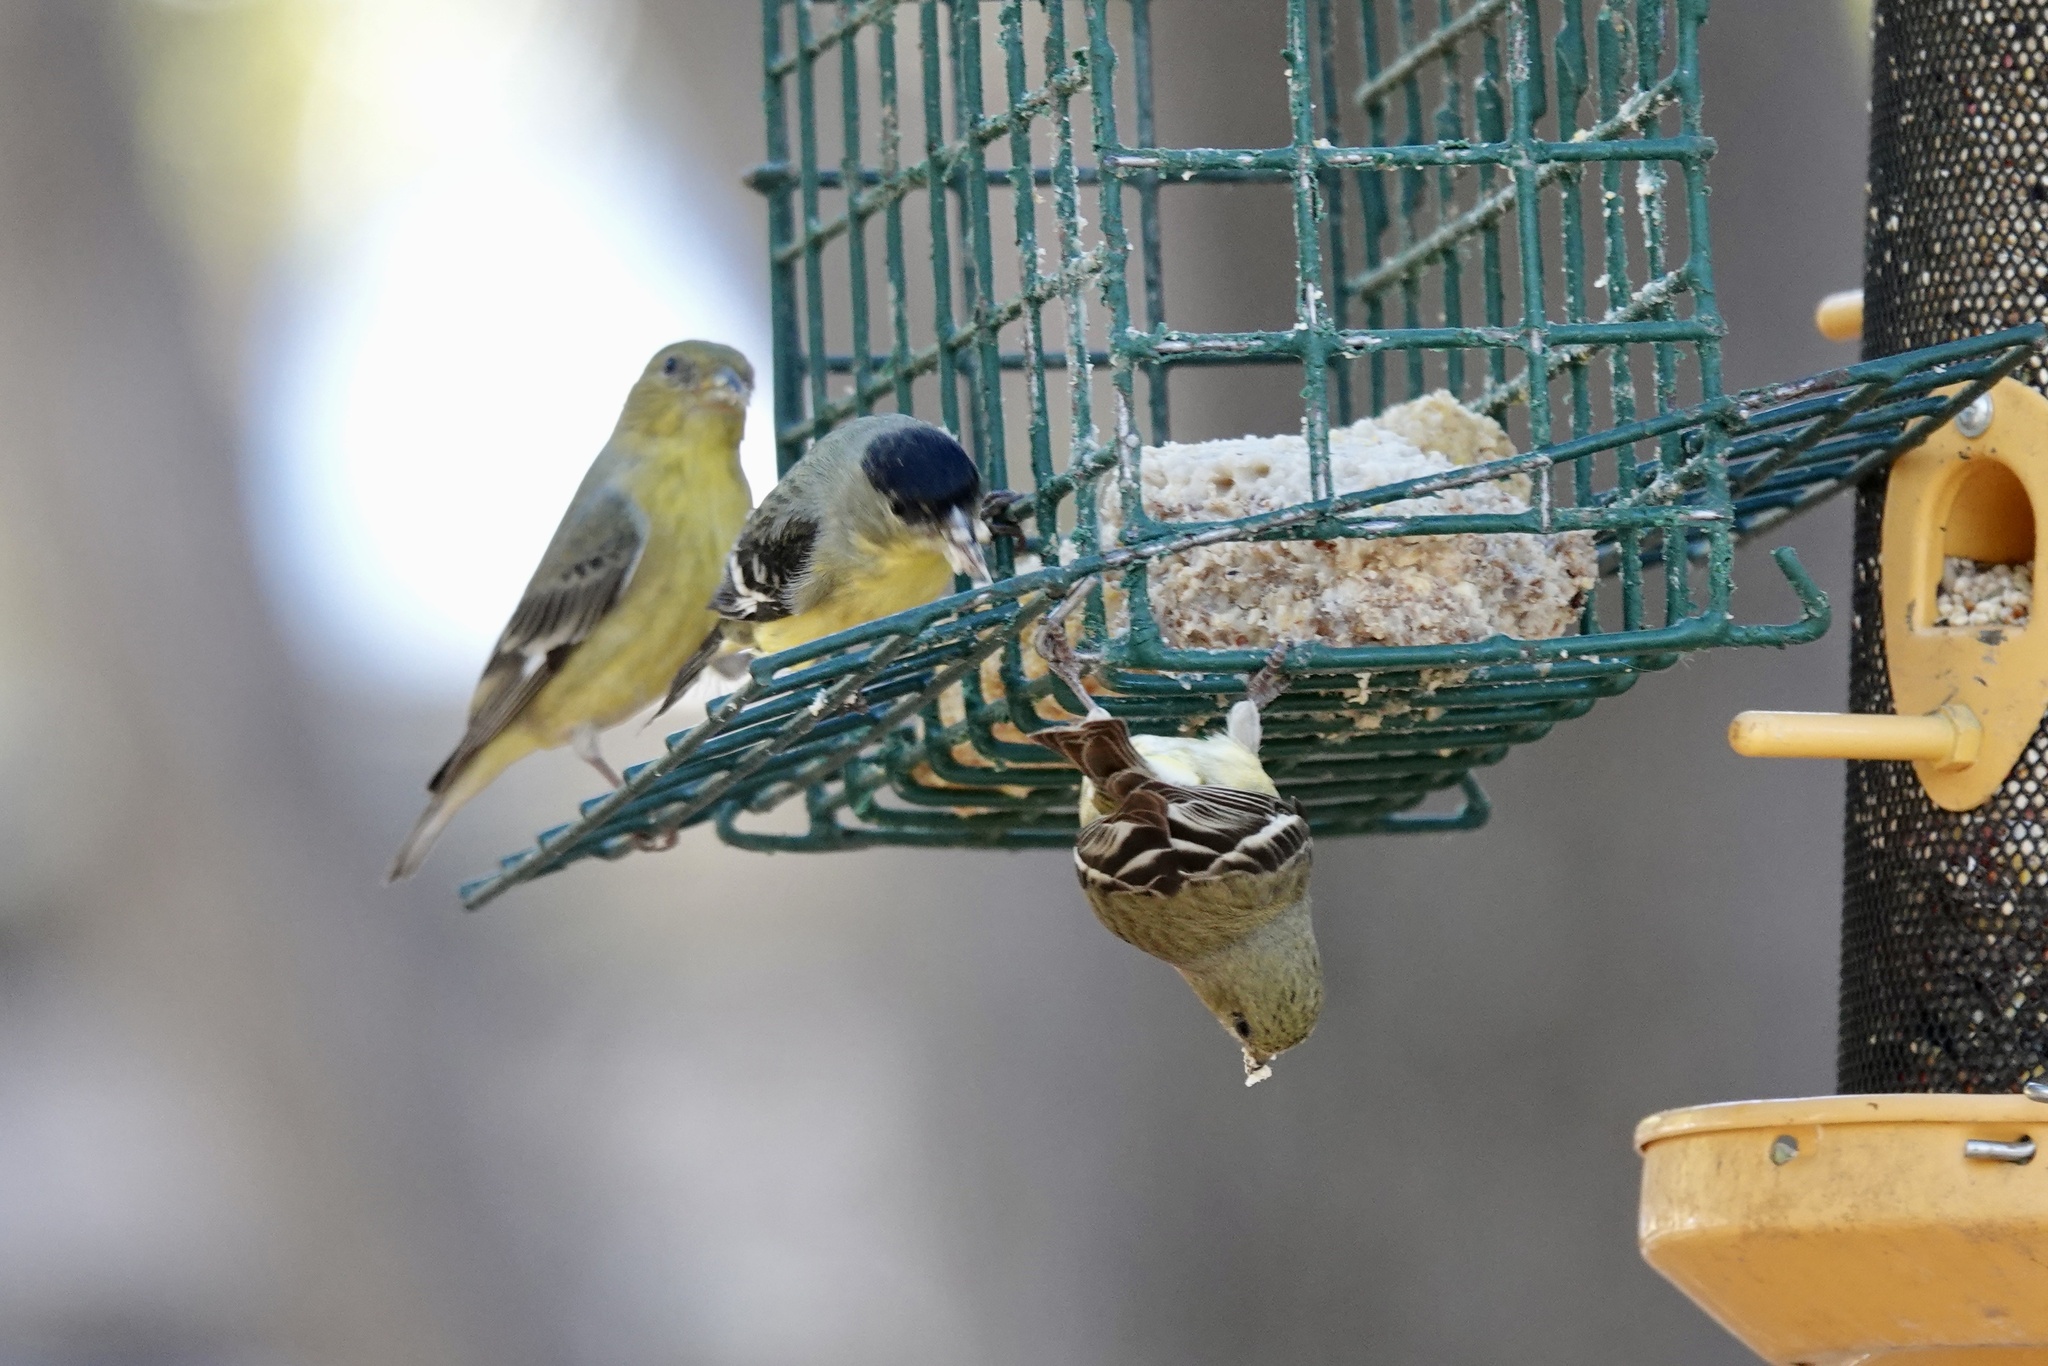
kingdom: Animalia
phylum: Chordata
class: Aves
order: Passeriformes
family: Fringillidae
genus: Spinus
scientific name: Spinus psaltria
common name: Lesser goldfinch
